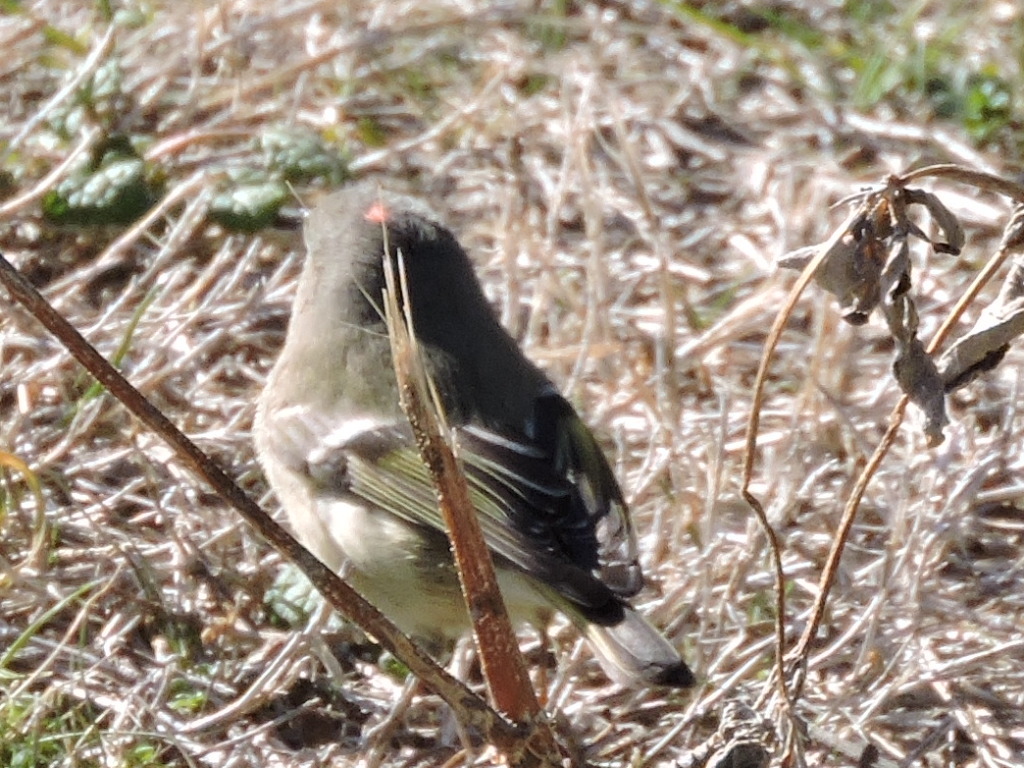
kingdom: Animalia
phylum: Chordata
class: Aves
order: Passeriformes
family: Regulidae
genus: Regulus
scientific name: Regulus calendula
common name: Ruby-crowned kinglet
